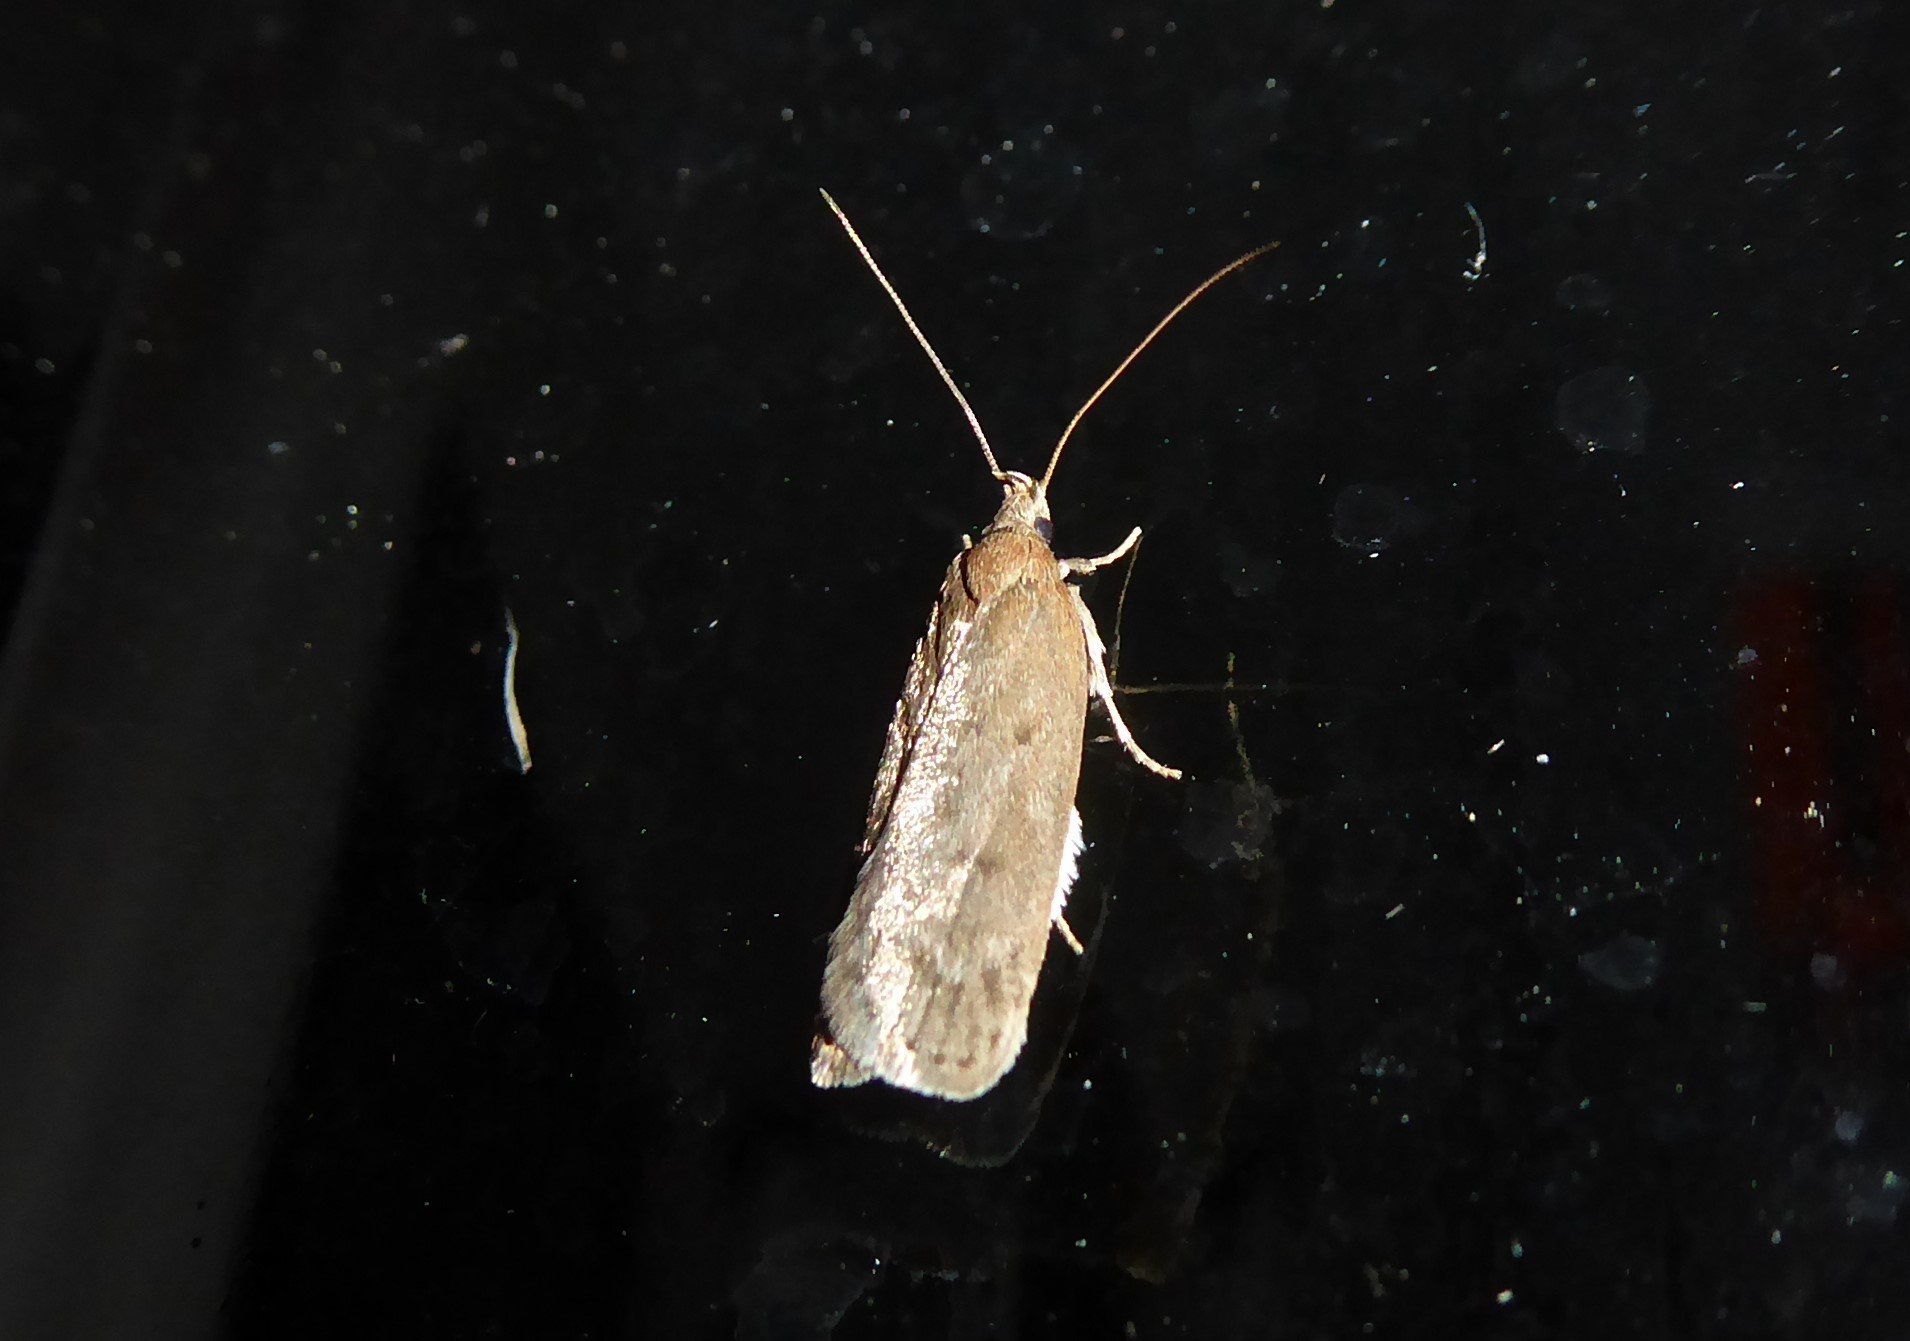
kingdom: Animalia
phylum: Arthropoda
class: Insecta
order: Lepidoptera
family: Depressariidae
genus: Phaeosaces
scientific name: Phaeosaces apocrypta
